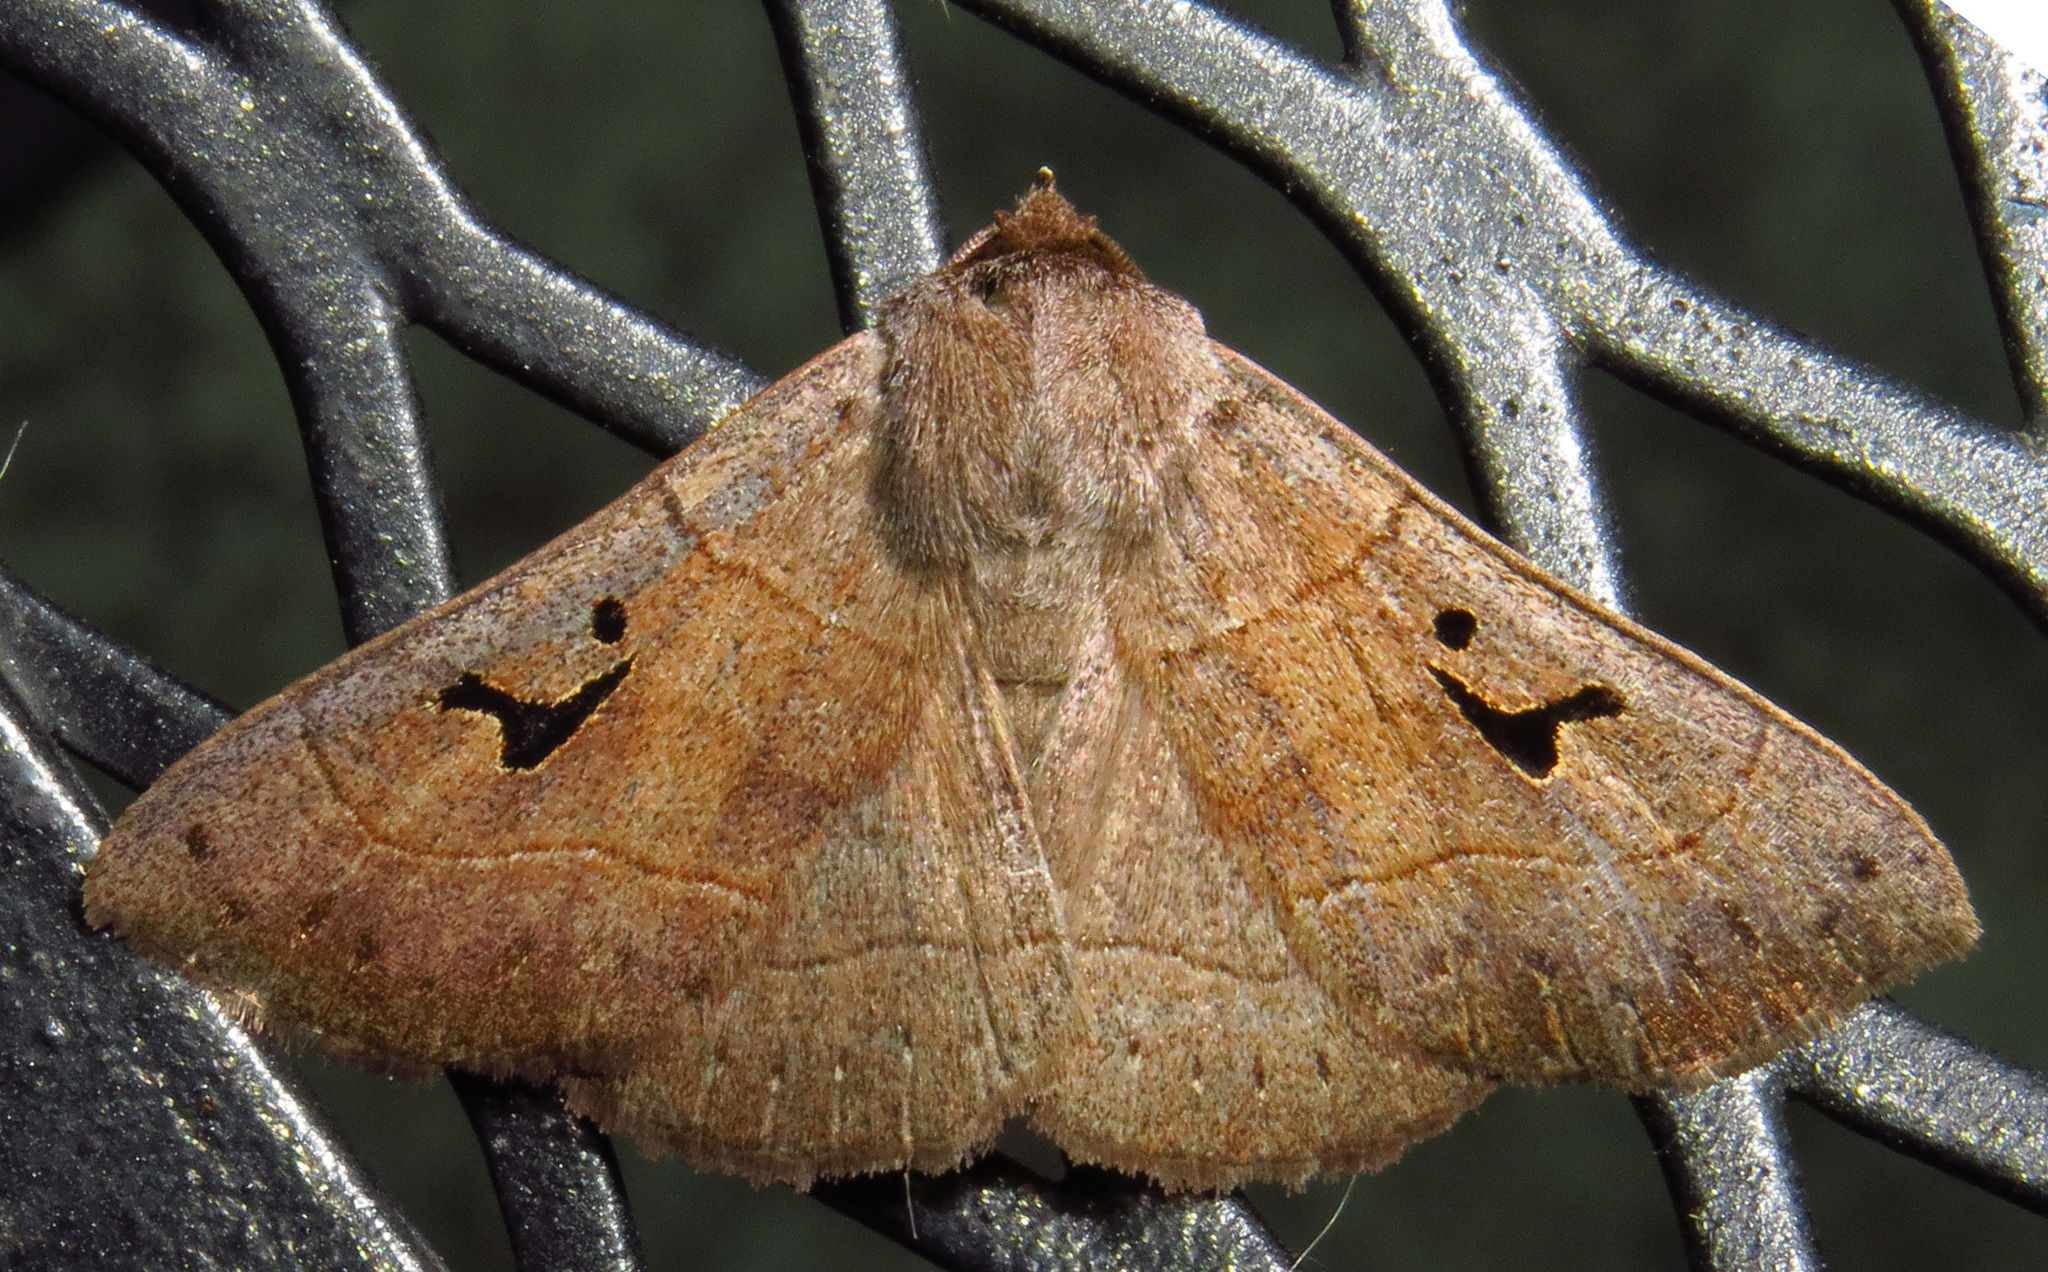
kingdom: Animalia
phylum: Arthropoda
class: Insecta
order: Lepidoptera
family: Erebidae
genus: Panopoda
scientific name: Panopoda carneicosta
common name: Brown panopoda moth
